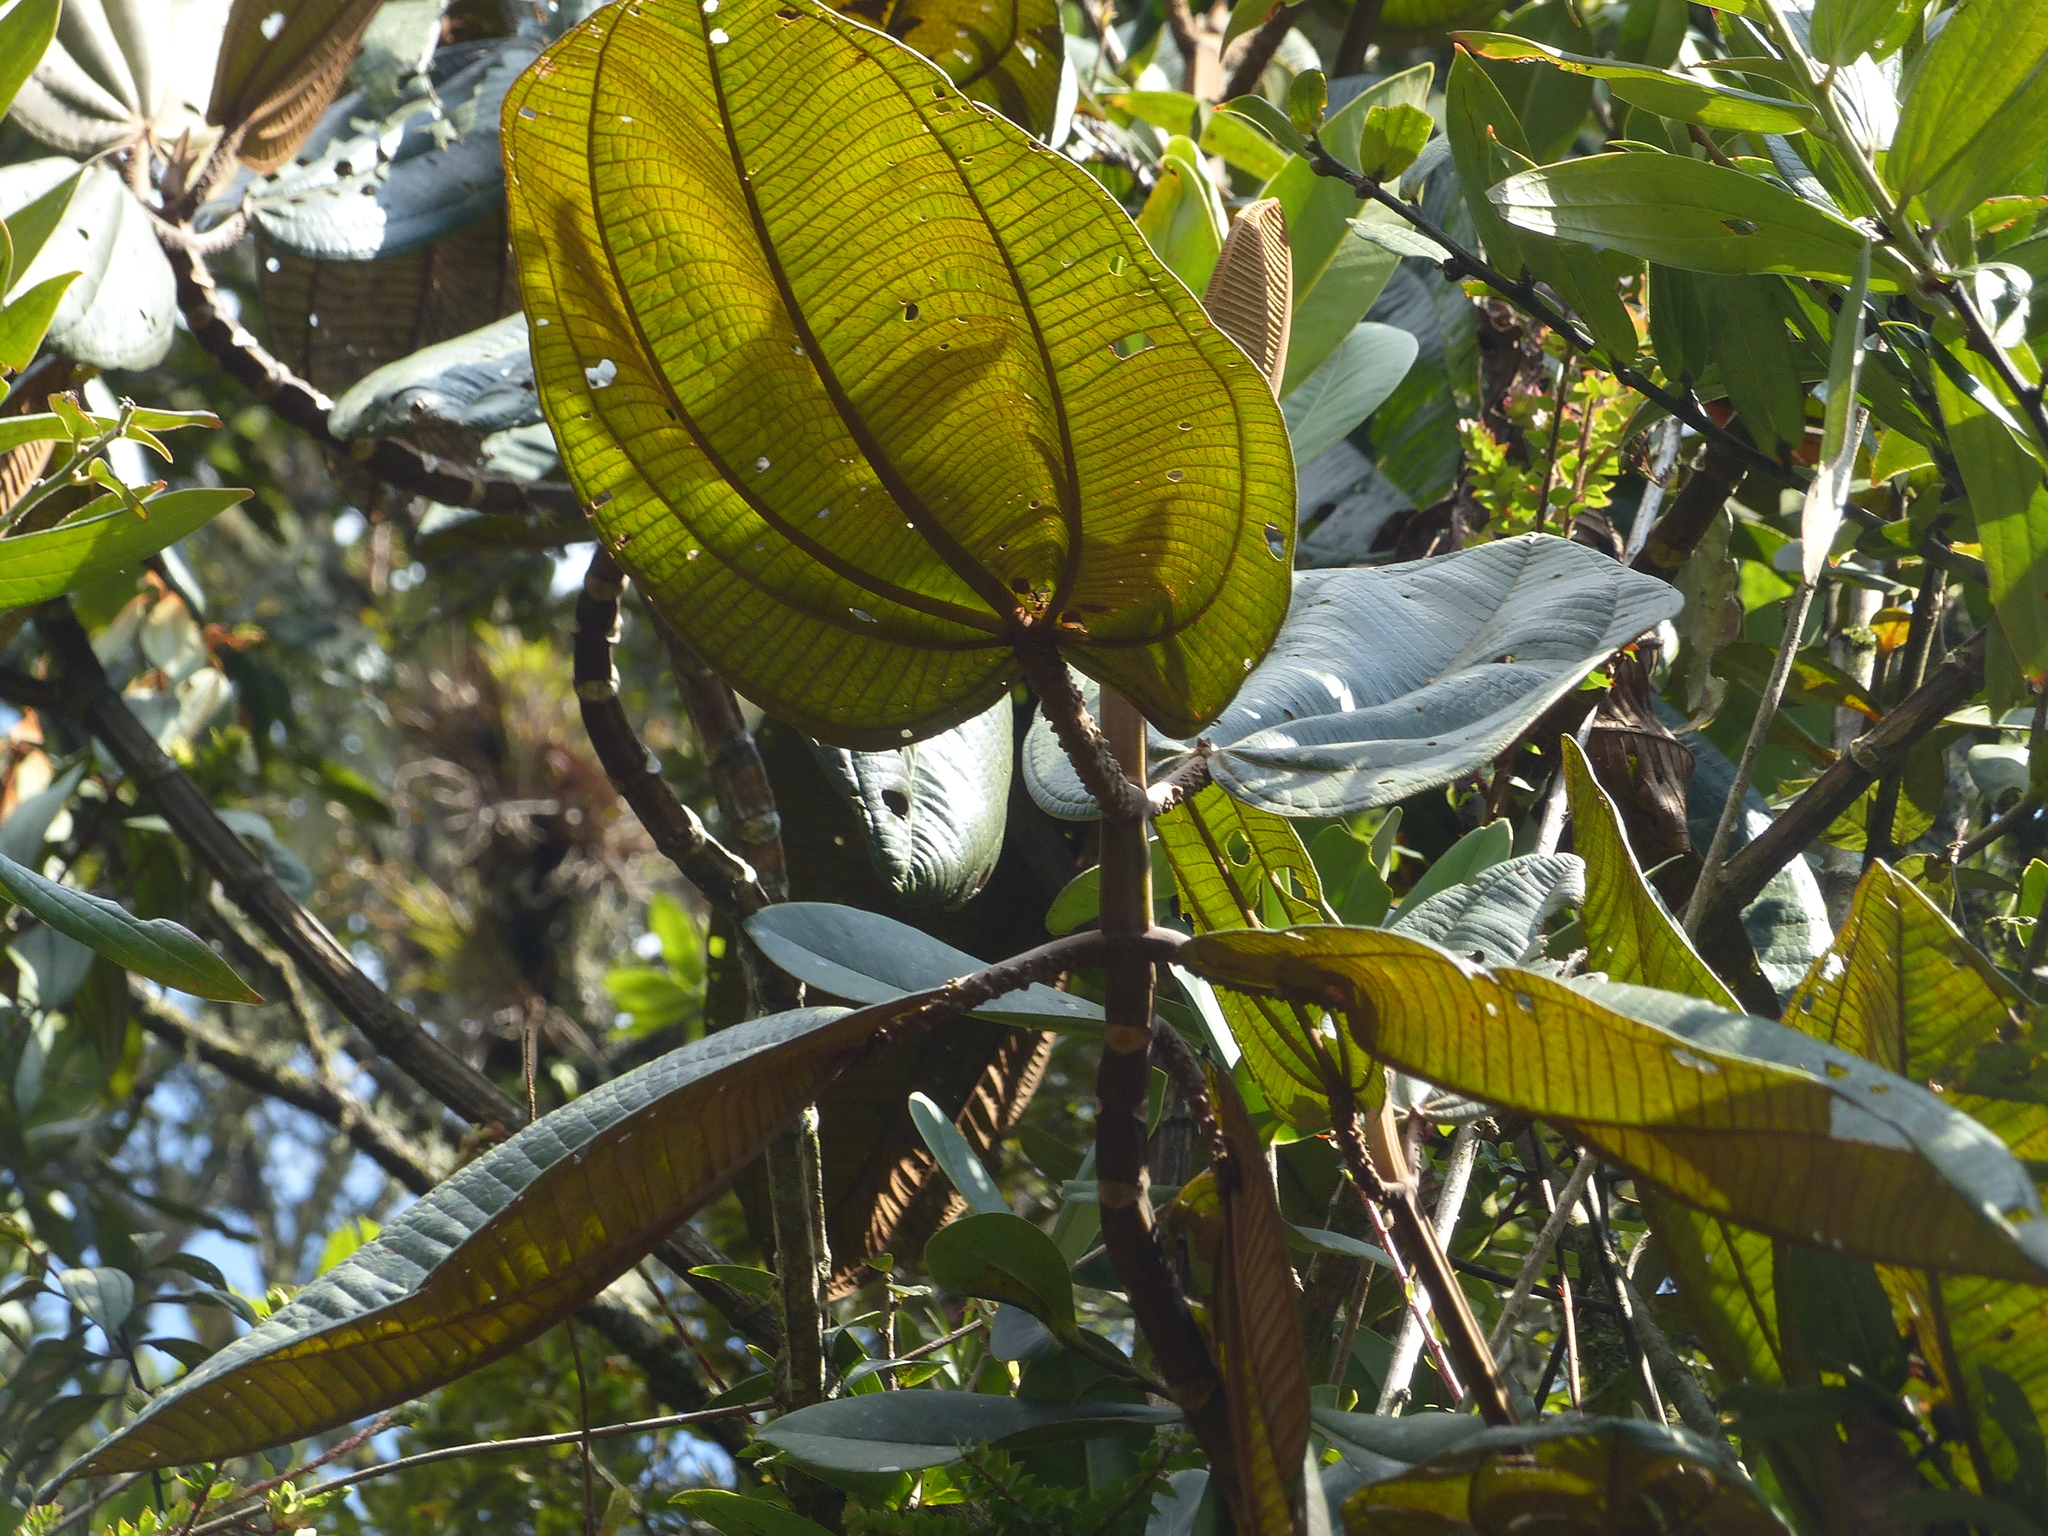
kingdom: Plantae
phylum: Tracheophyta
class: Magnoliopsida
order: Myrtales
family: Melastomataceae
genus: Graffenrieda
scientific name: Graffenrieda uribei
